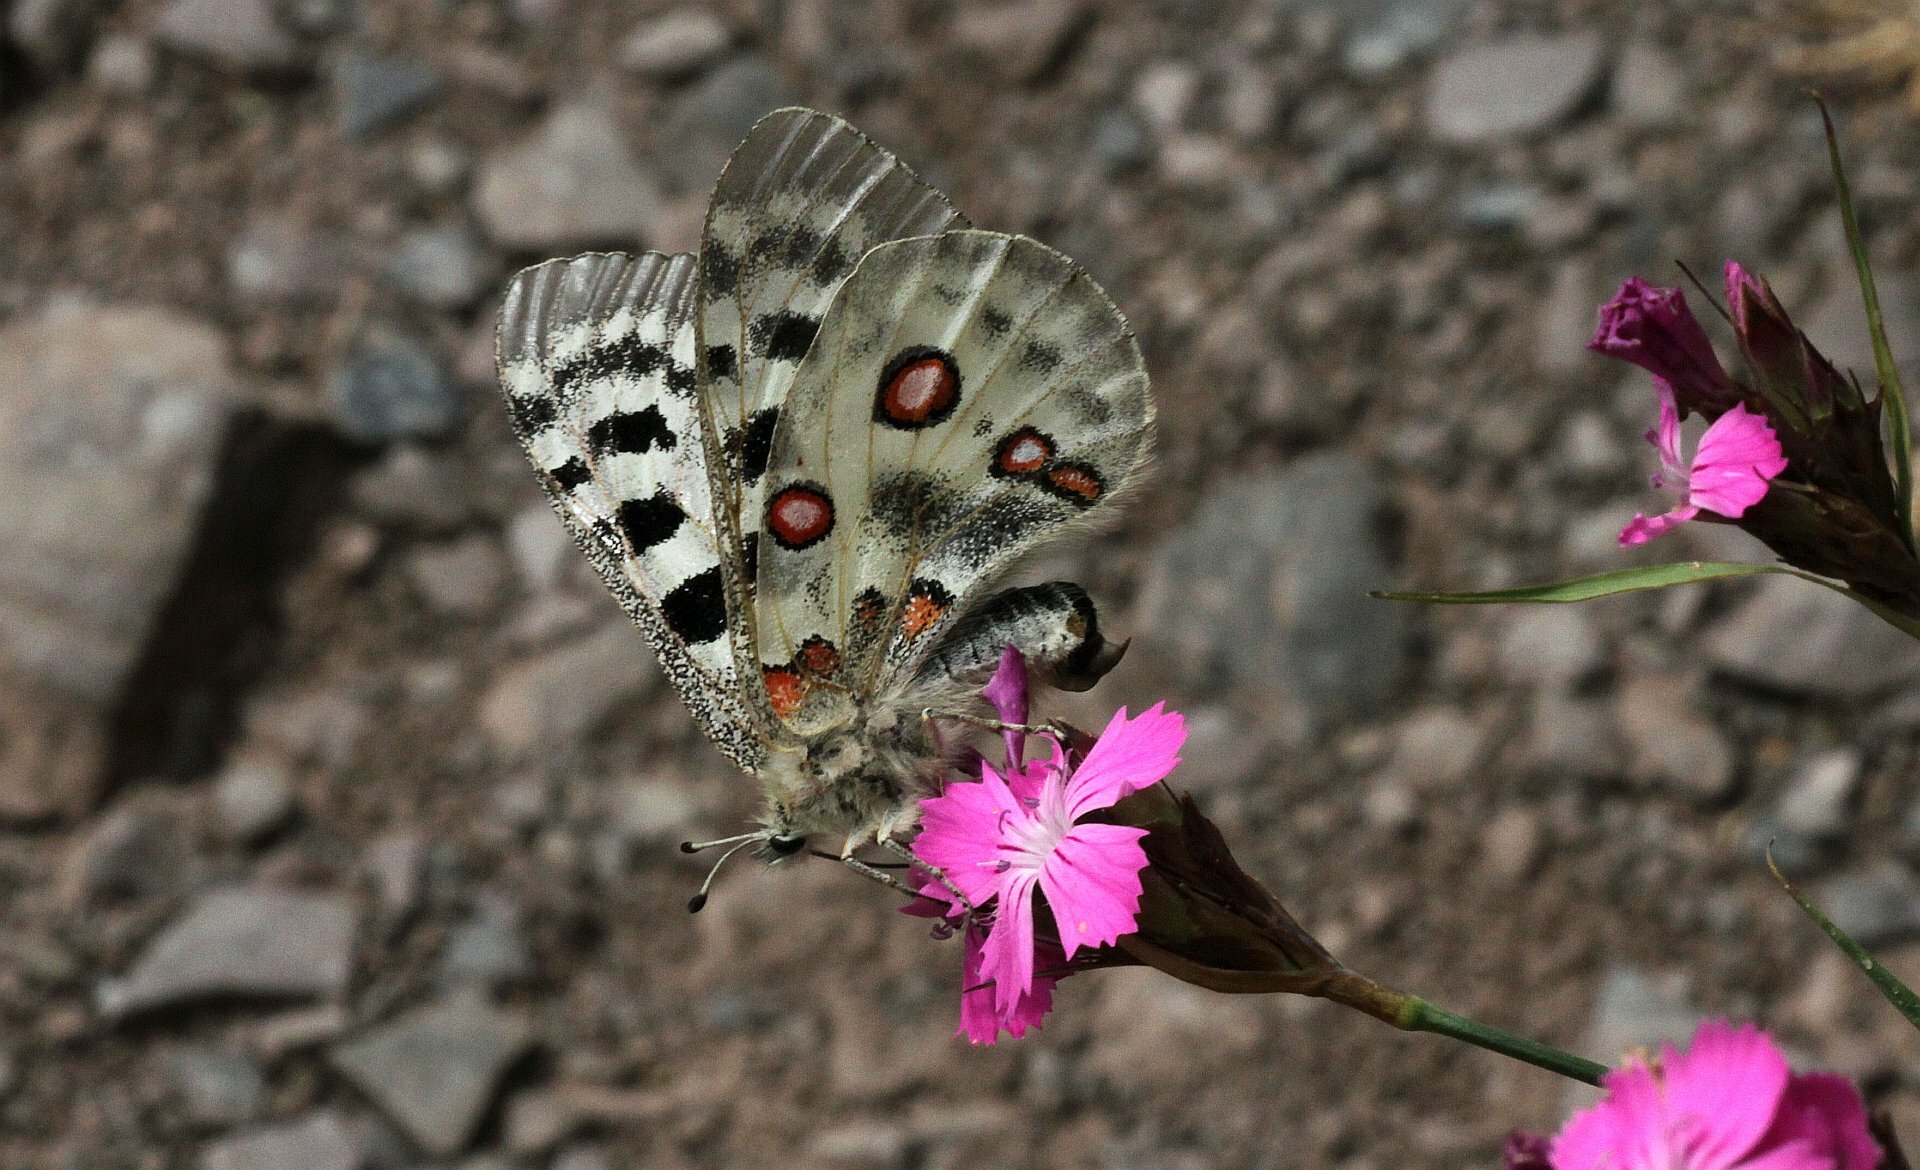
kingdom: Animalia
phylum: Arthropoda
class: Insecta
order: Lepidoptera
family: Papilionidae
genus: Parnassius
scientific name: Parnassius apollo
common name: Apollo
